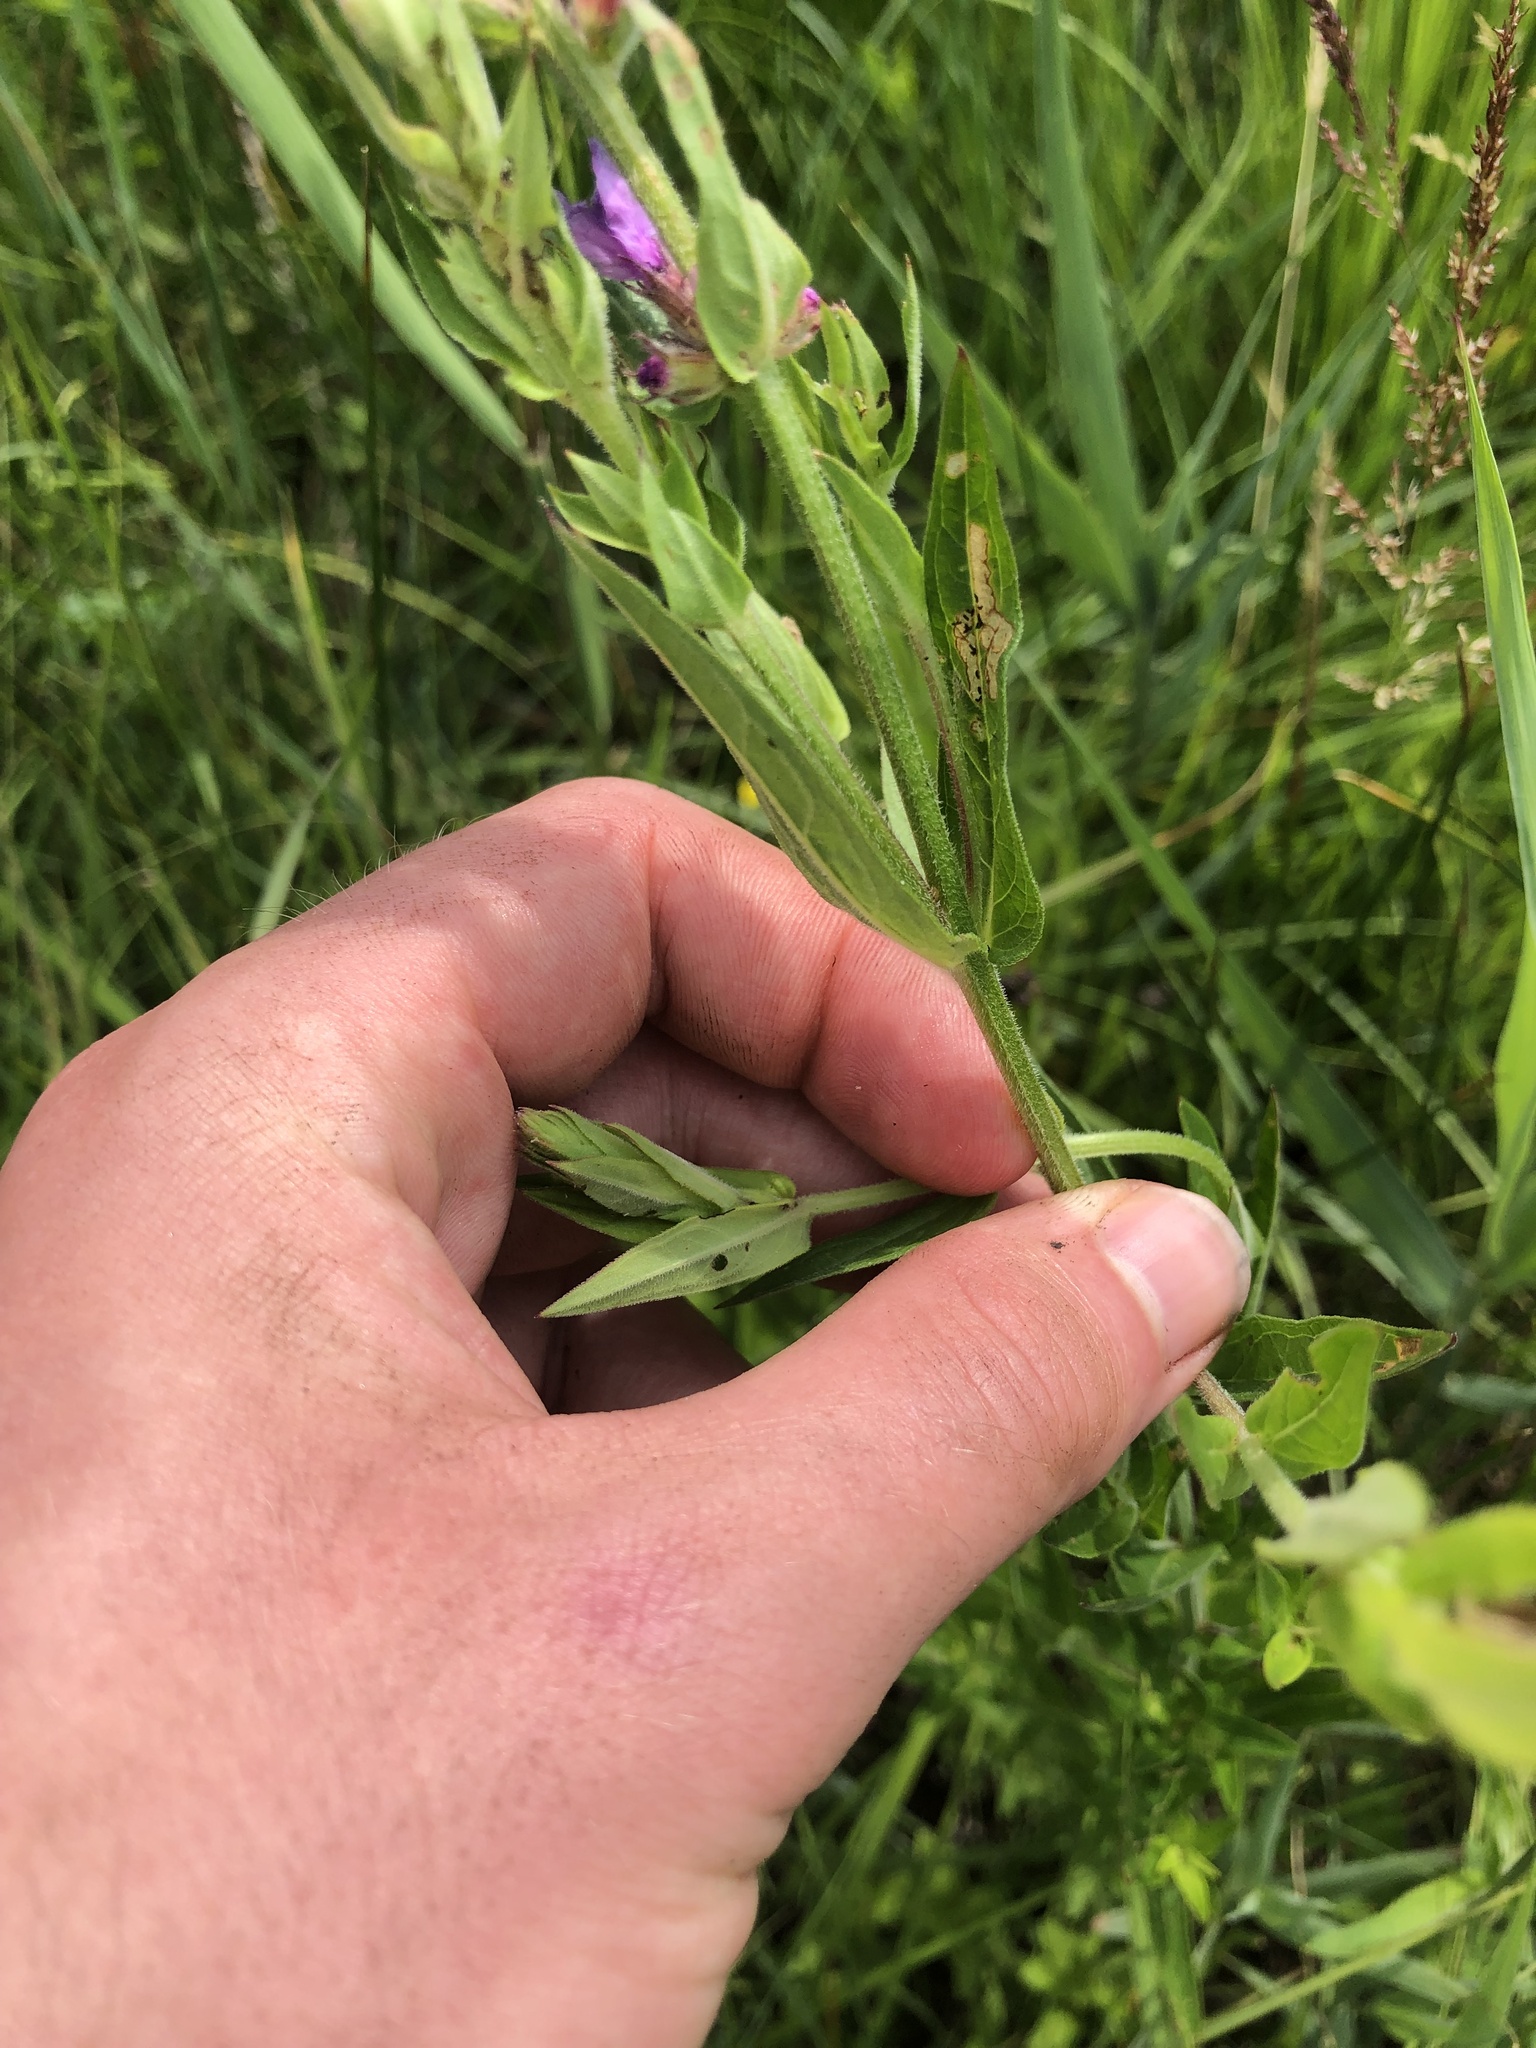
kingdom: Plantae
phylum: Tracheophyta
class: Magnoliopsida
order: Myrtales
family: Lythraceae
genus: Lythrum
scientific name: Lythrum salicaria
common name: Purple loosestrife
